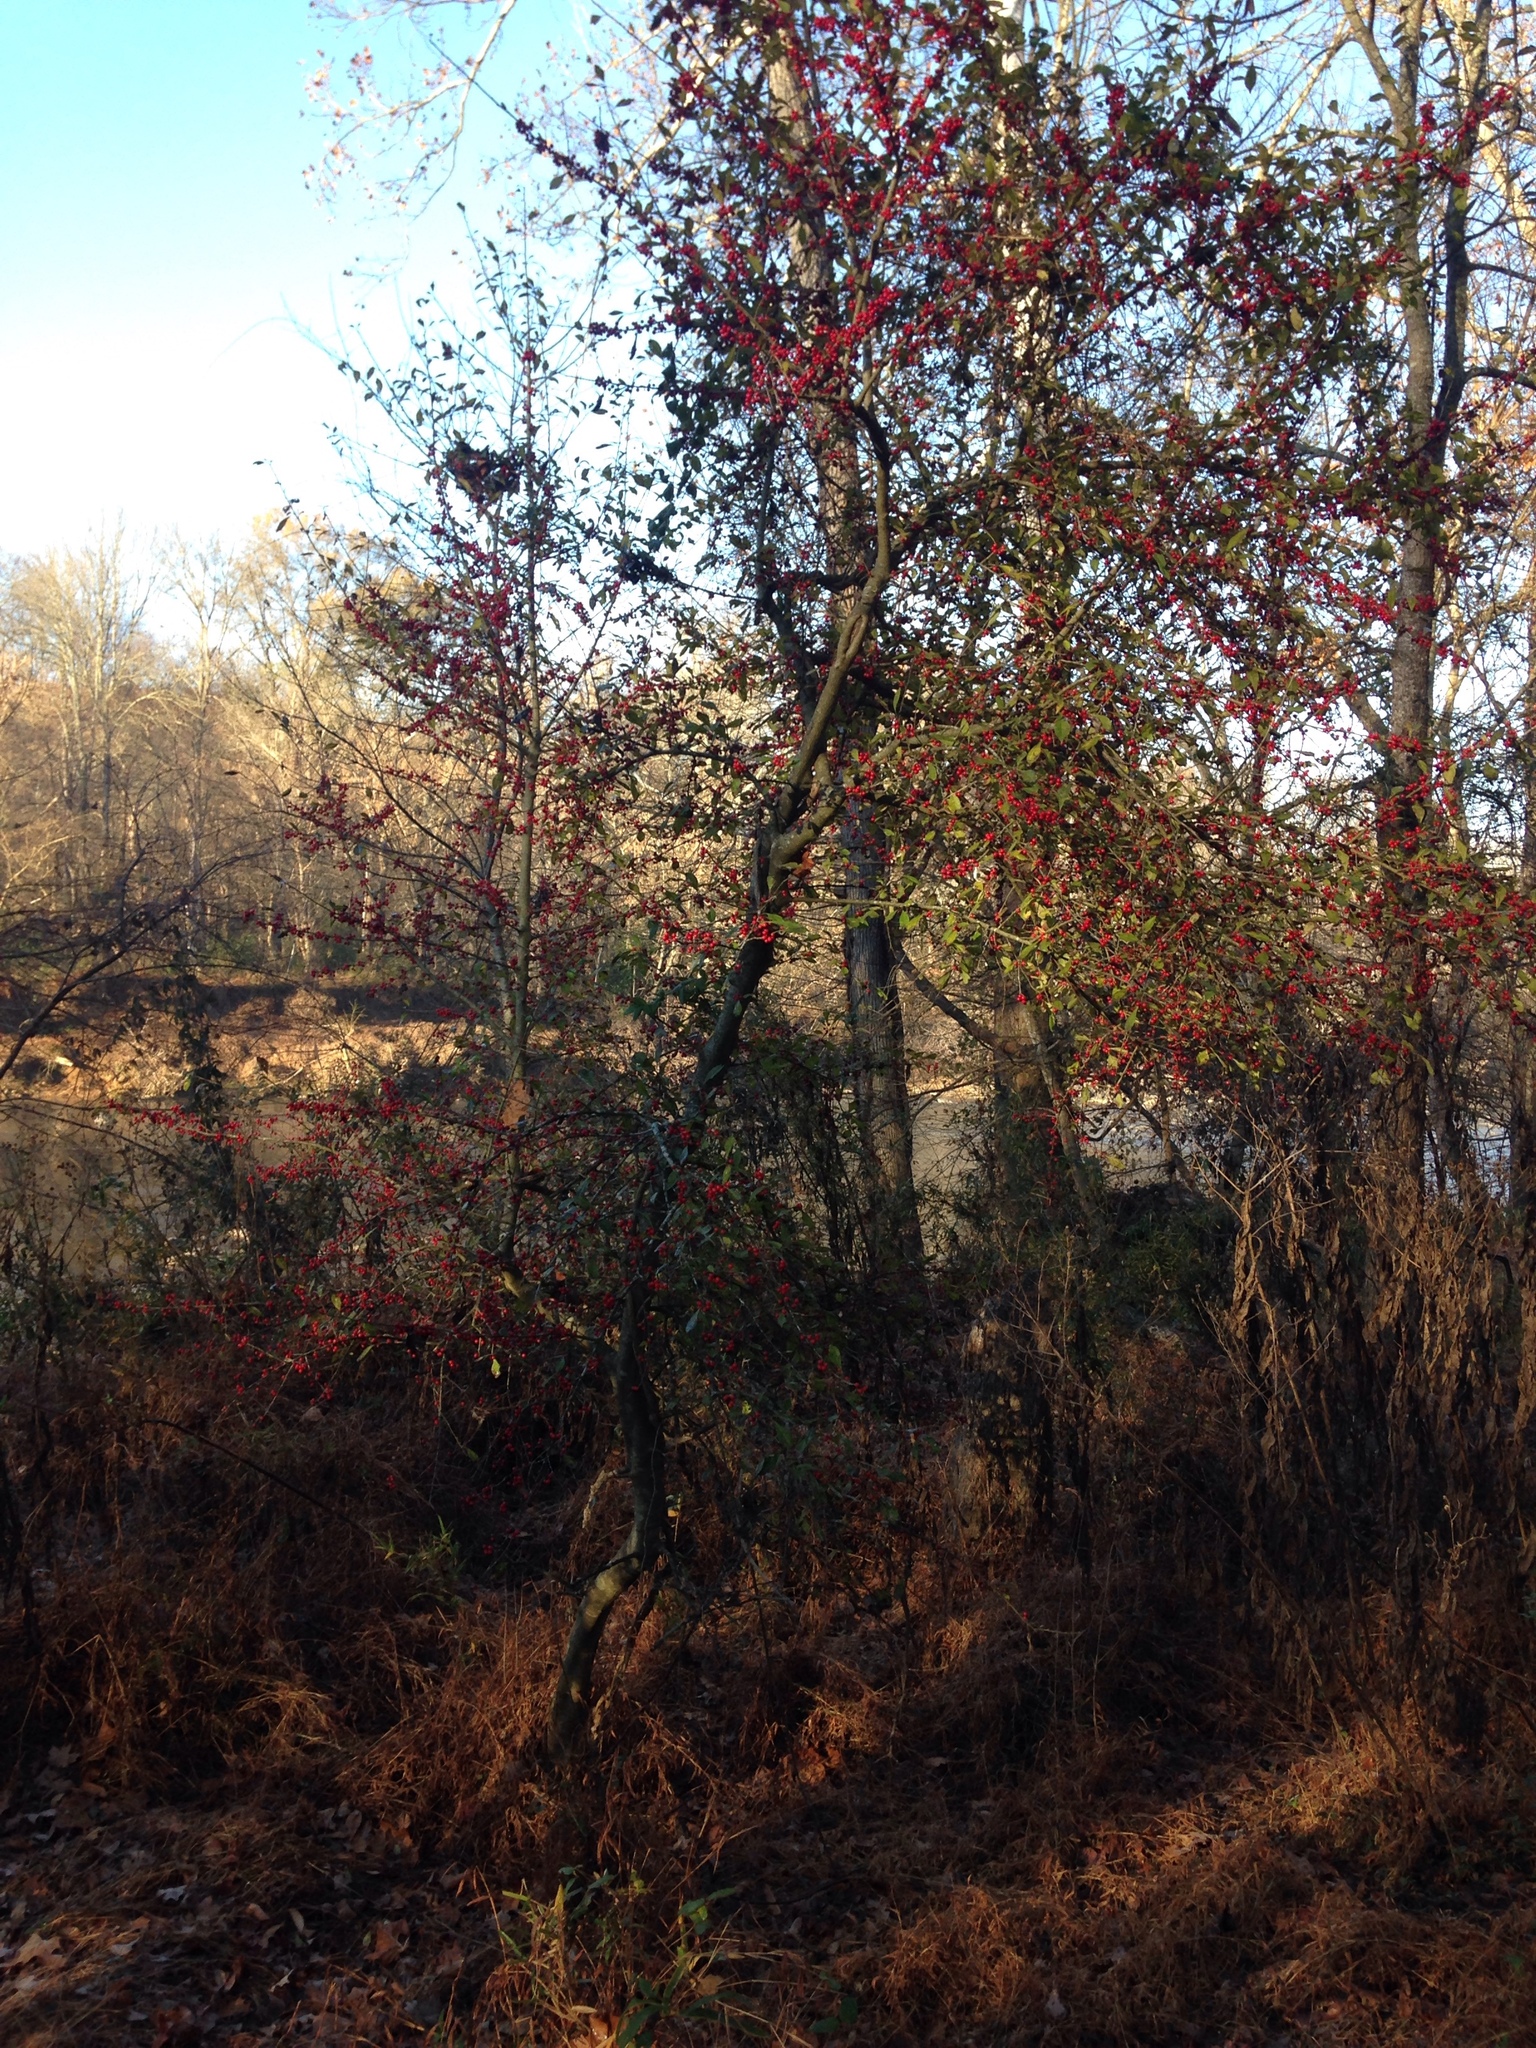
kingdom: Plantae
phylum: Tracheophyta
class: Magnoliopsida
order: Aquifoliales
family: Aquifoliaceae
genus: Ilex
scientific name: Ilex decidua
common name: Possum-haw
